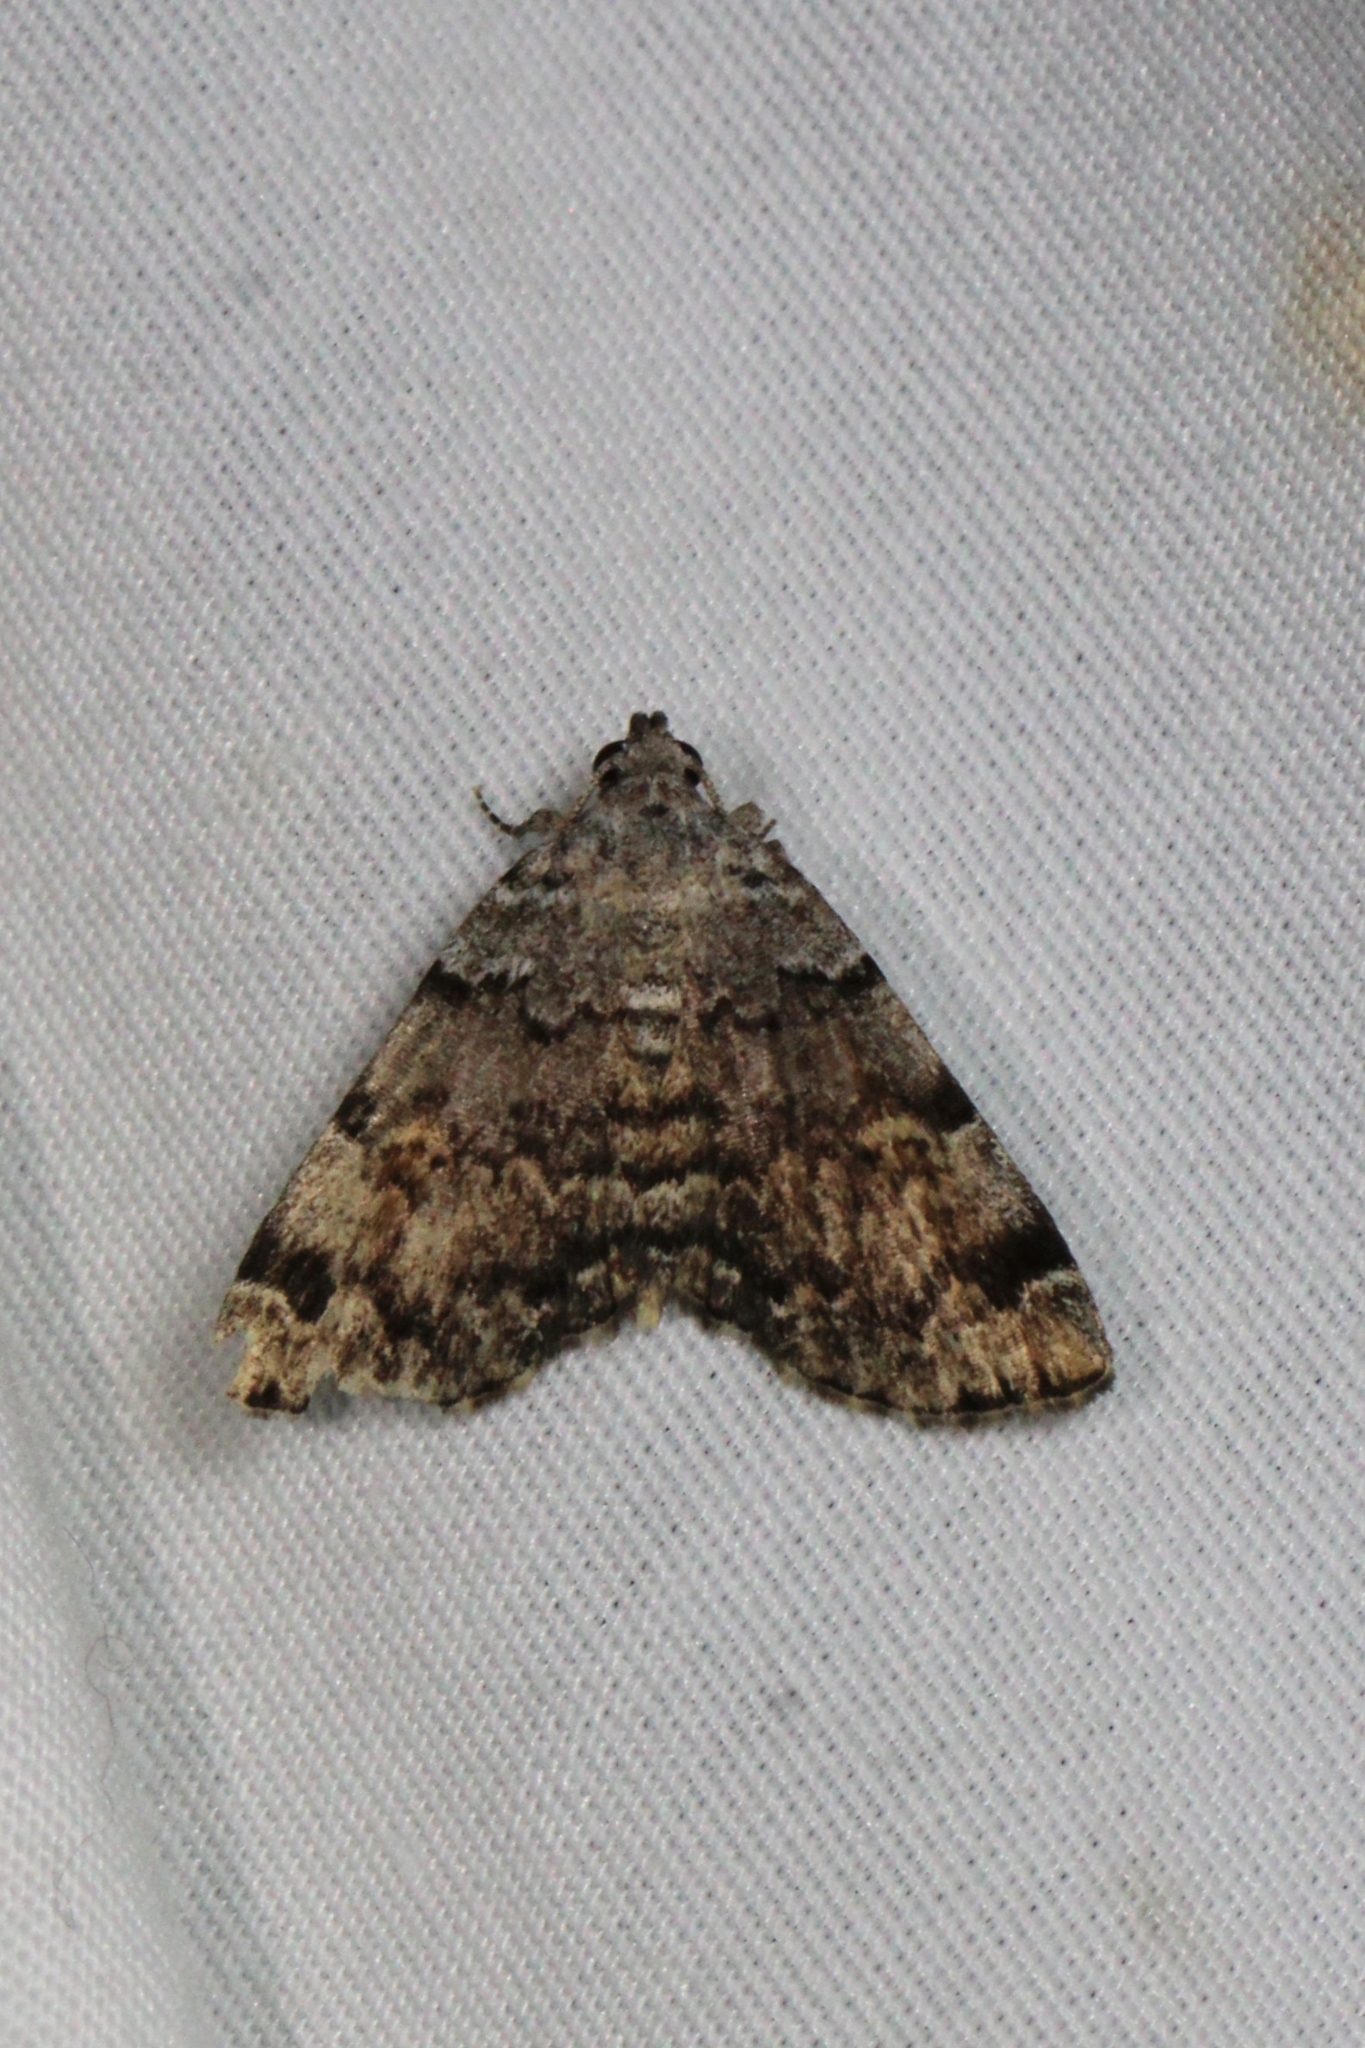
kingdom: Animalia
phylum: Arthropoda
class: Insecta
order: Lepidoptera
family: Erebidae
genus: Idia
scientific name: Idia americalis
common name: American idia moth
